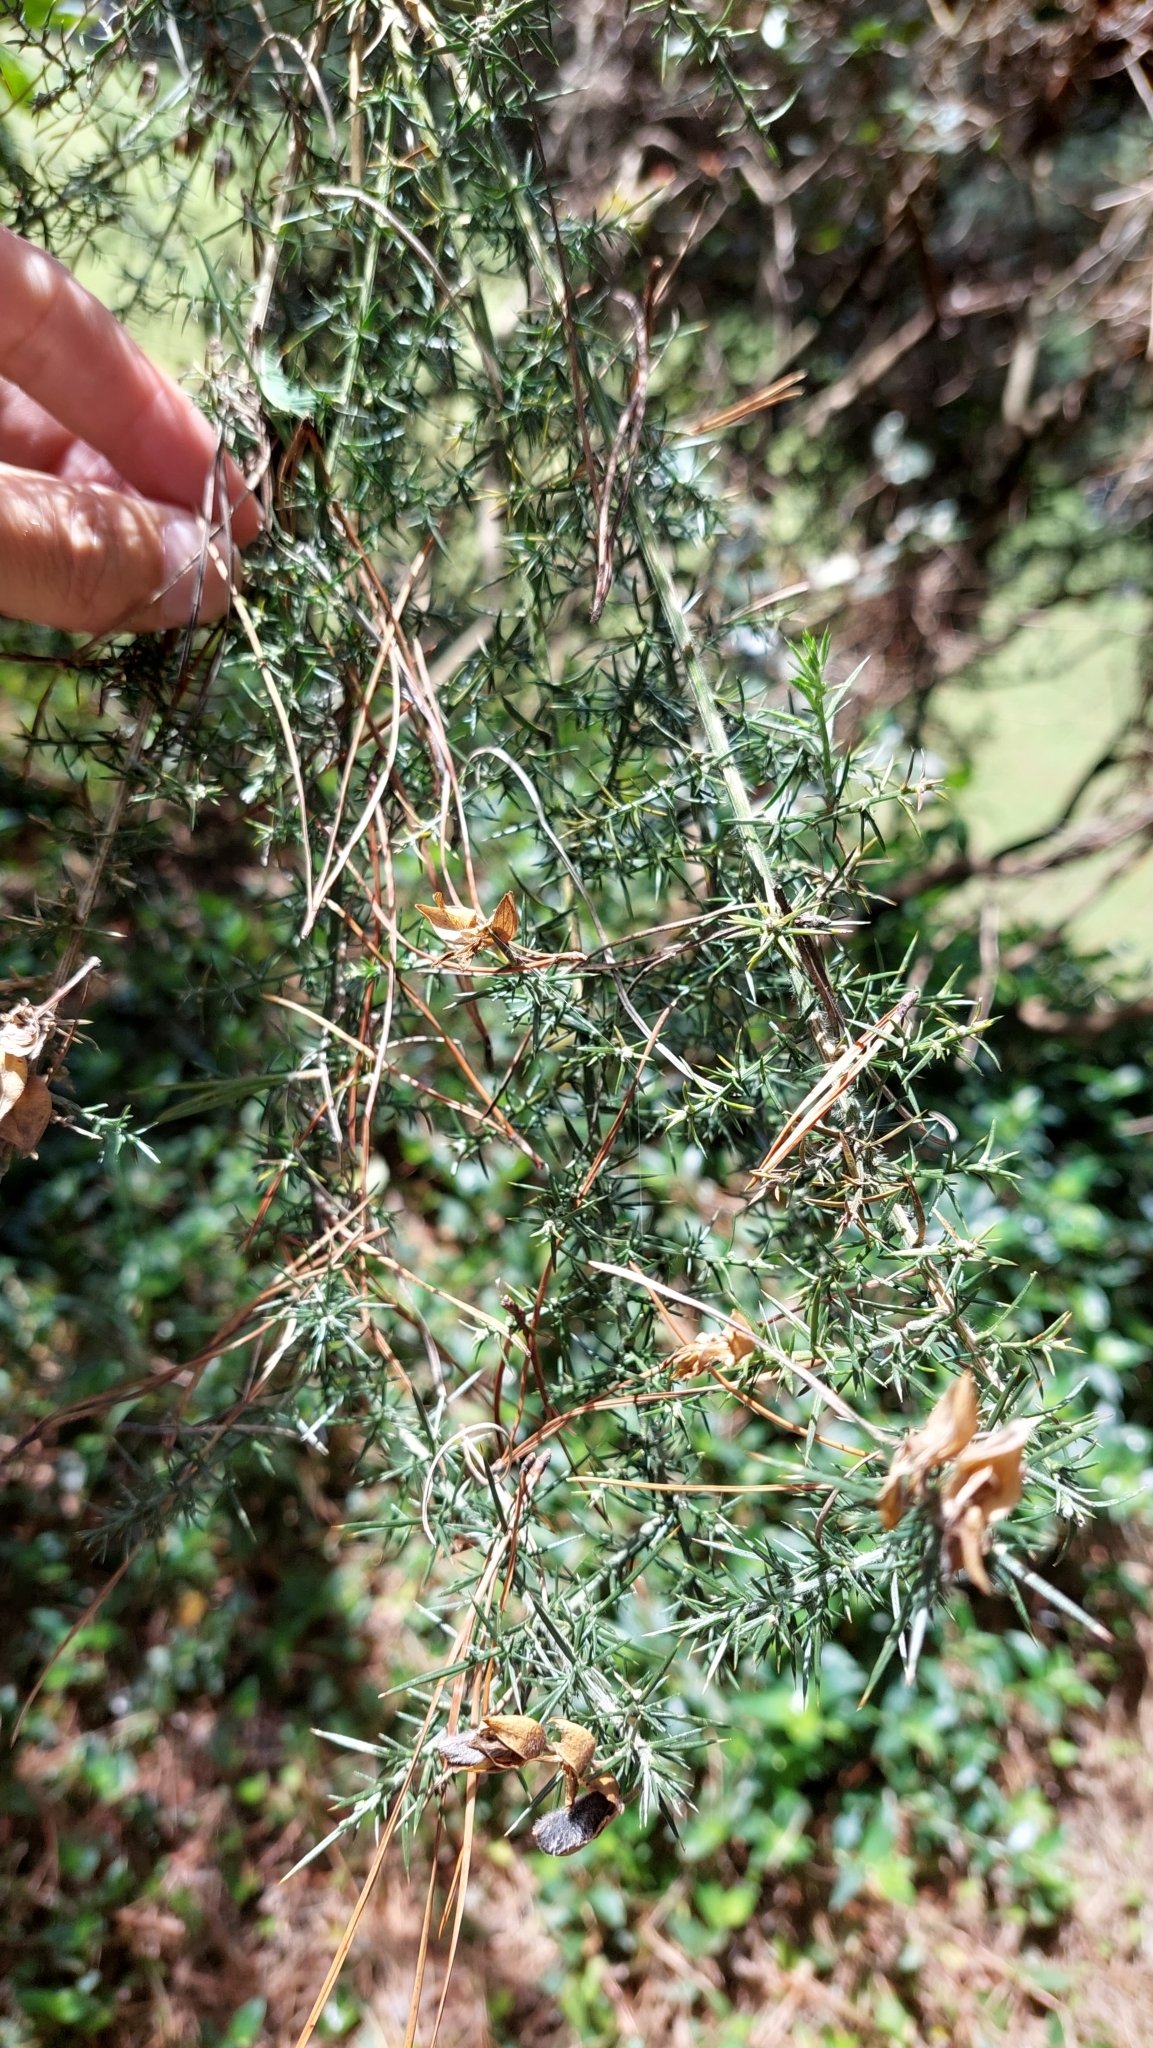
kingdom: Plantae
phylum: Tracheophyta
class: Magnoliopsida
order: Fabales
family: Fabaceae
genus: Ulex
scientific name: Ulex europaeus
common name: Common gorse
